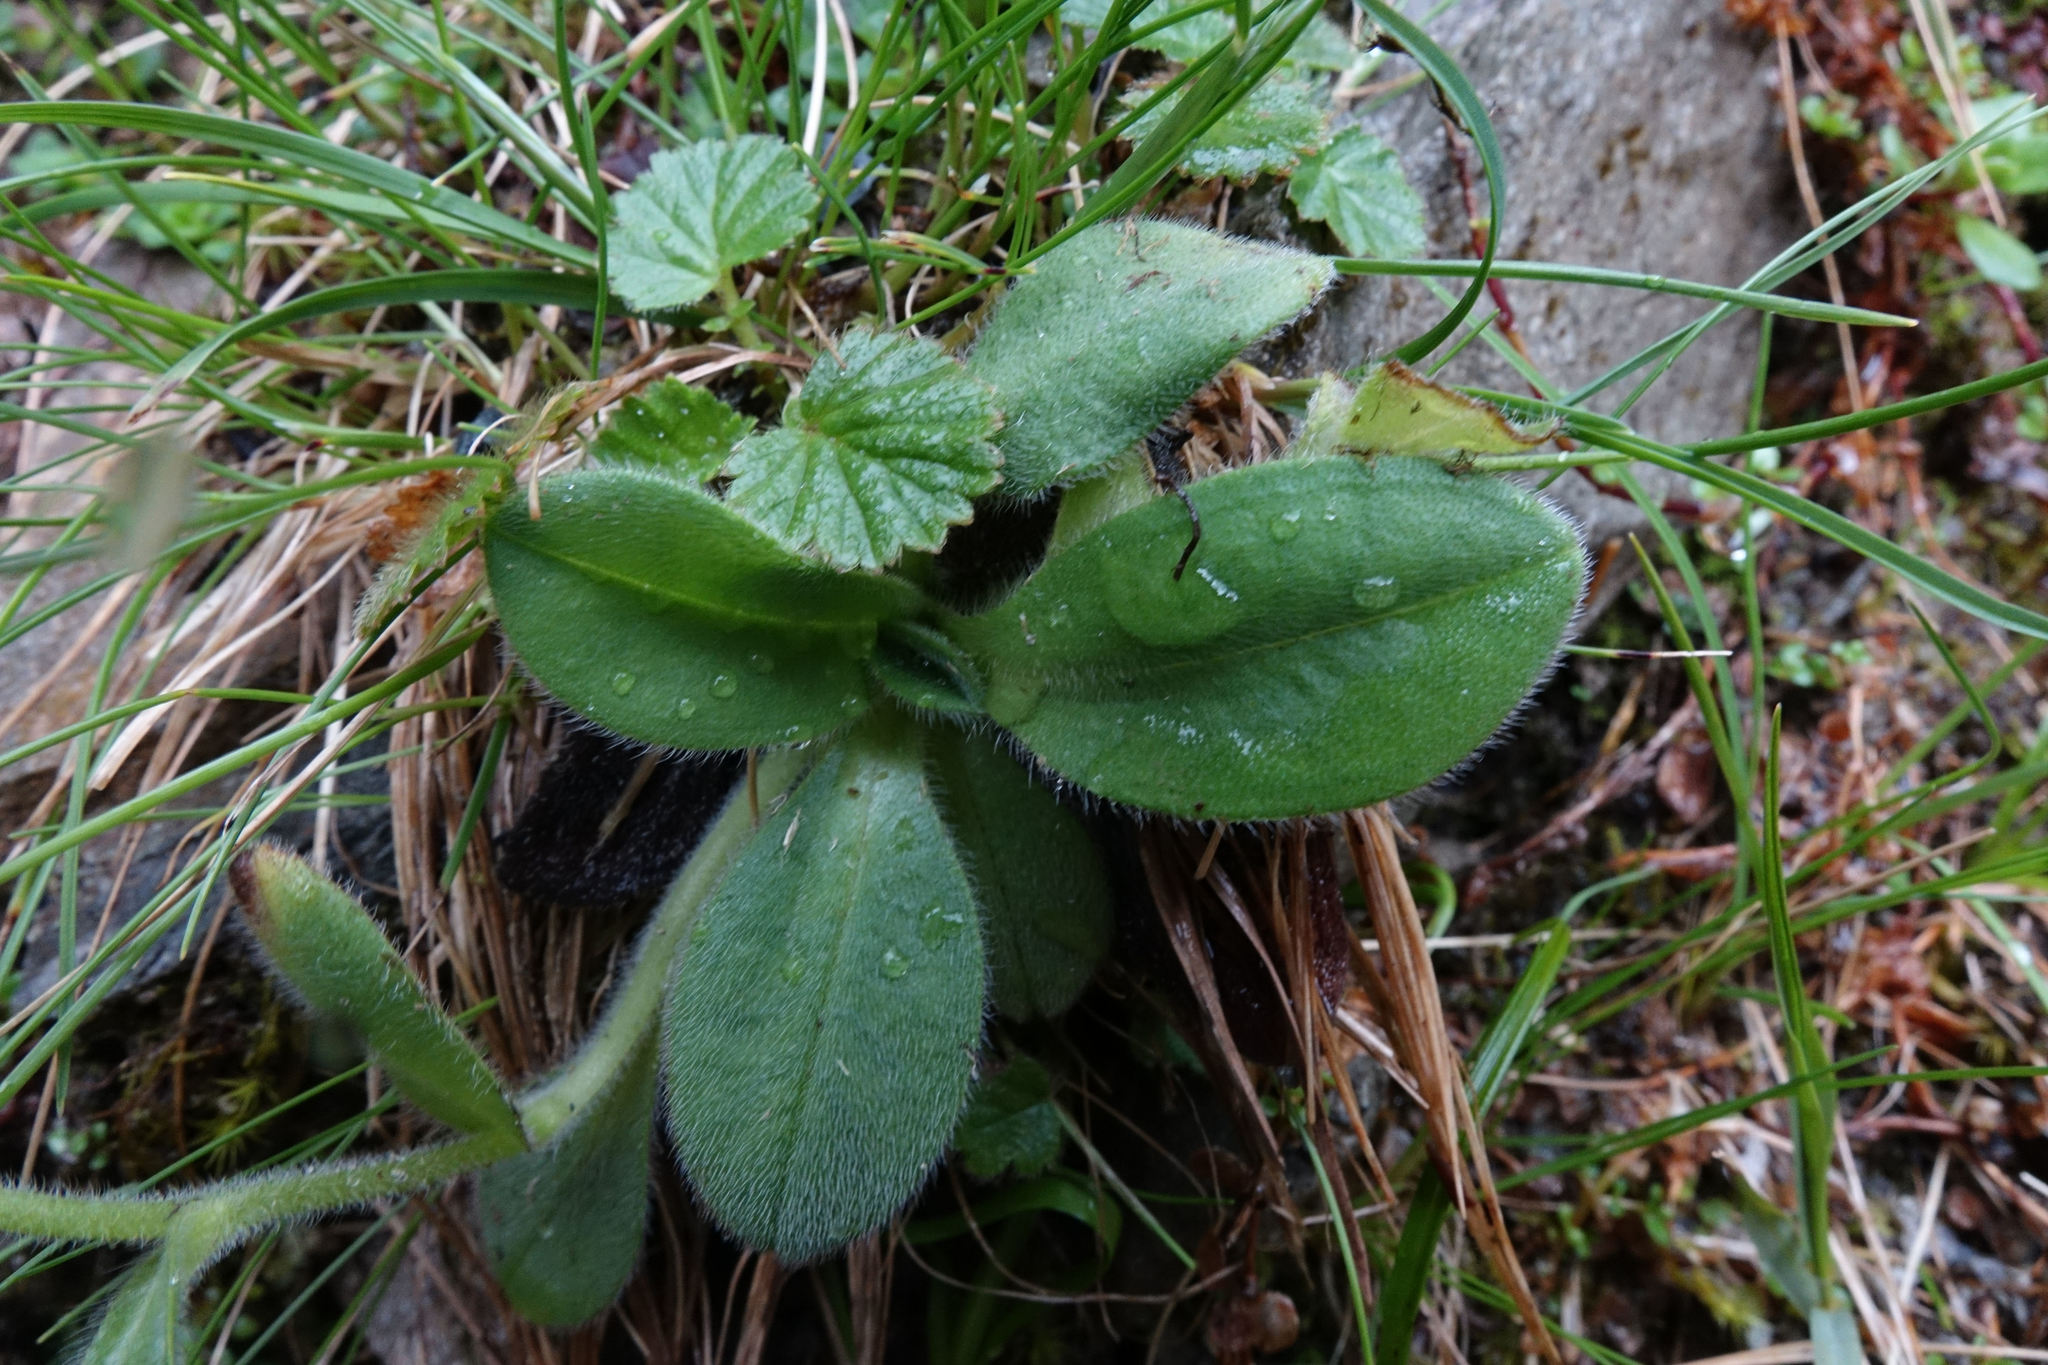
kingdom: Plantae
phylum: Tracheophyta
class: Magnoliopsida
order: Boraginales
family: Boraginaceae
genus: Myosotis
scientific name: Myosotis suavis
